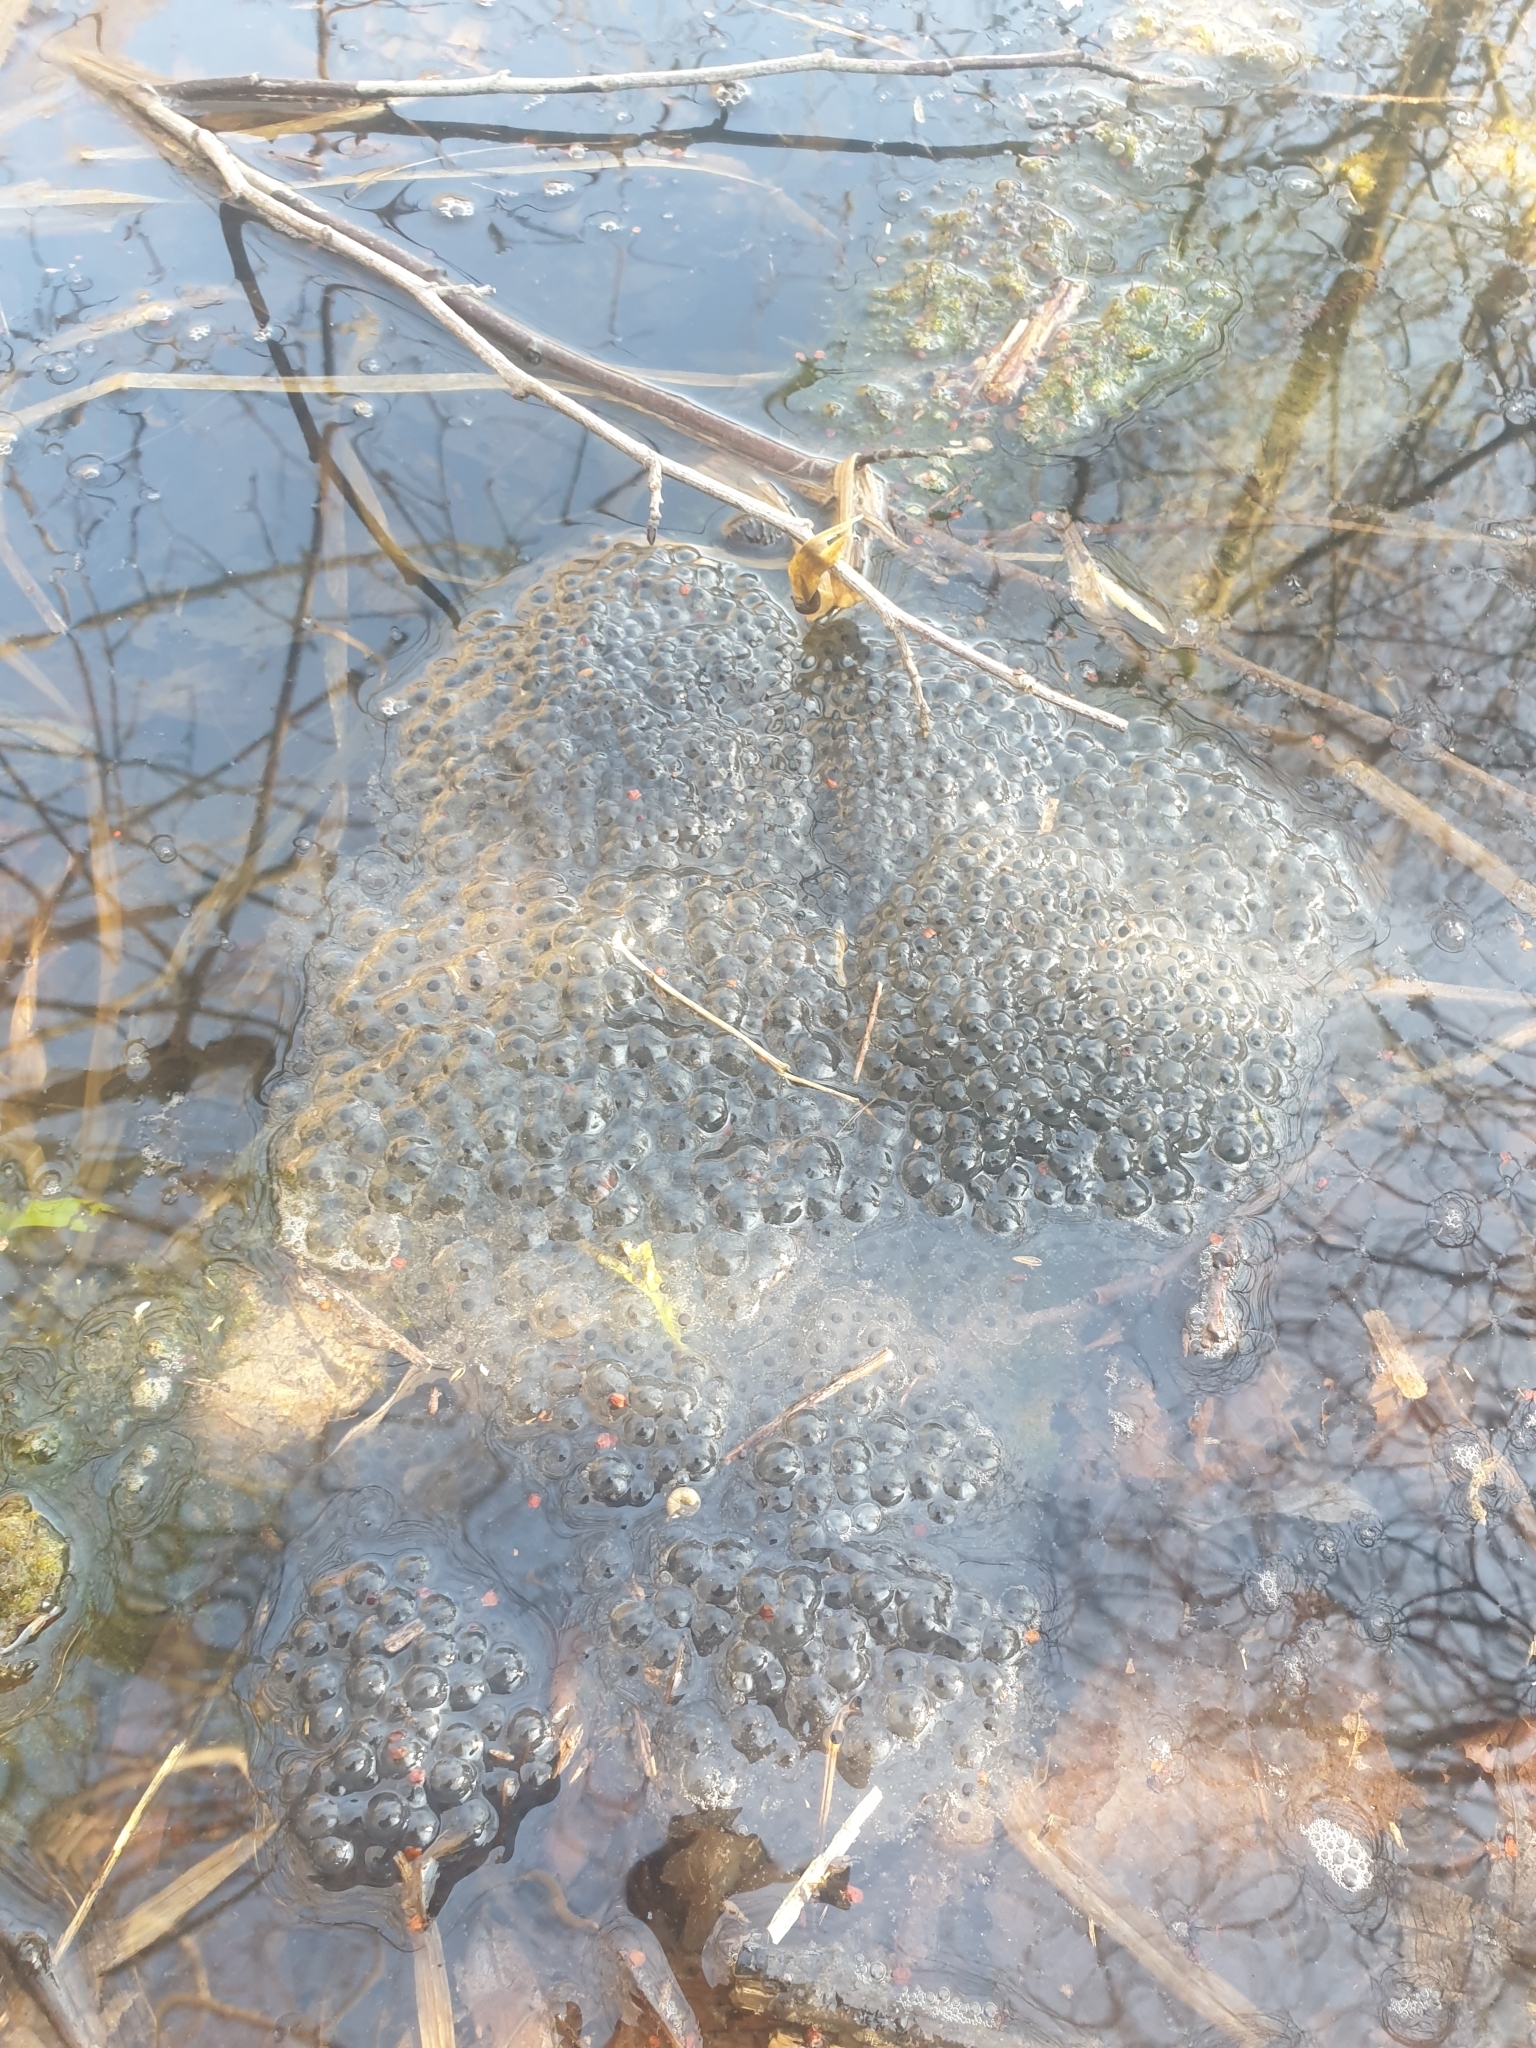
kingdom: Animalia
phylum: Chordata
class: Amphibia
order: Anura
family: Ranidae
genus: Rana
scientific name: Rana temporaria
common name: Common frog
